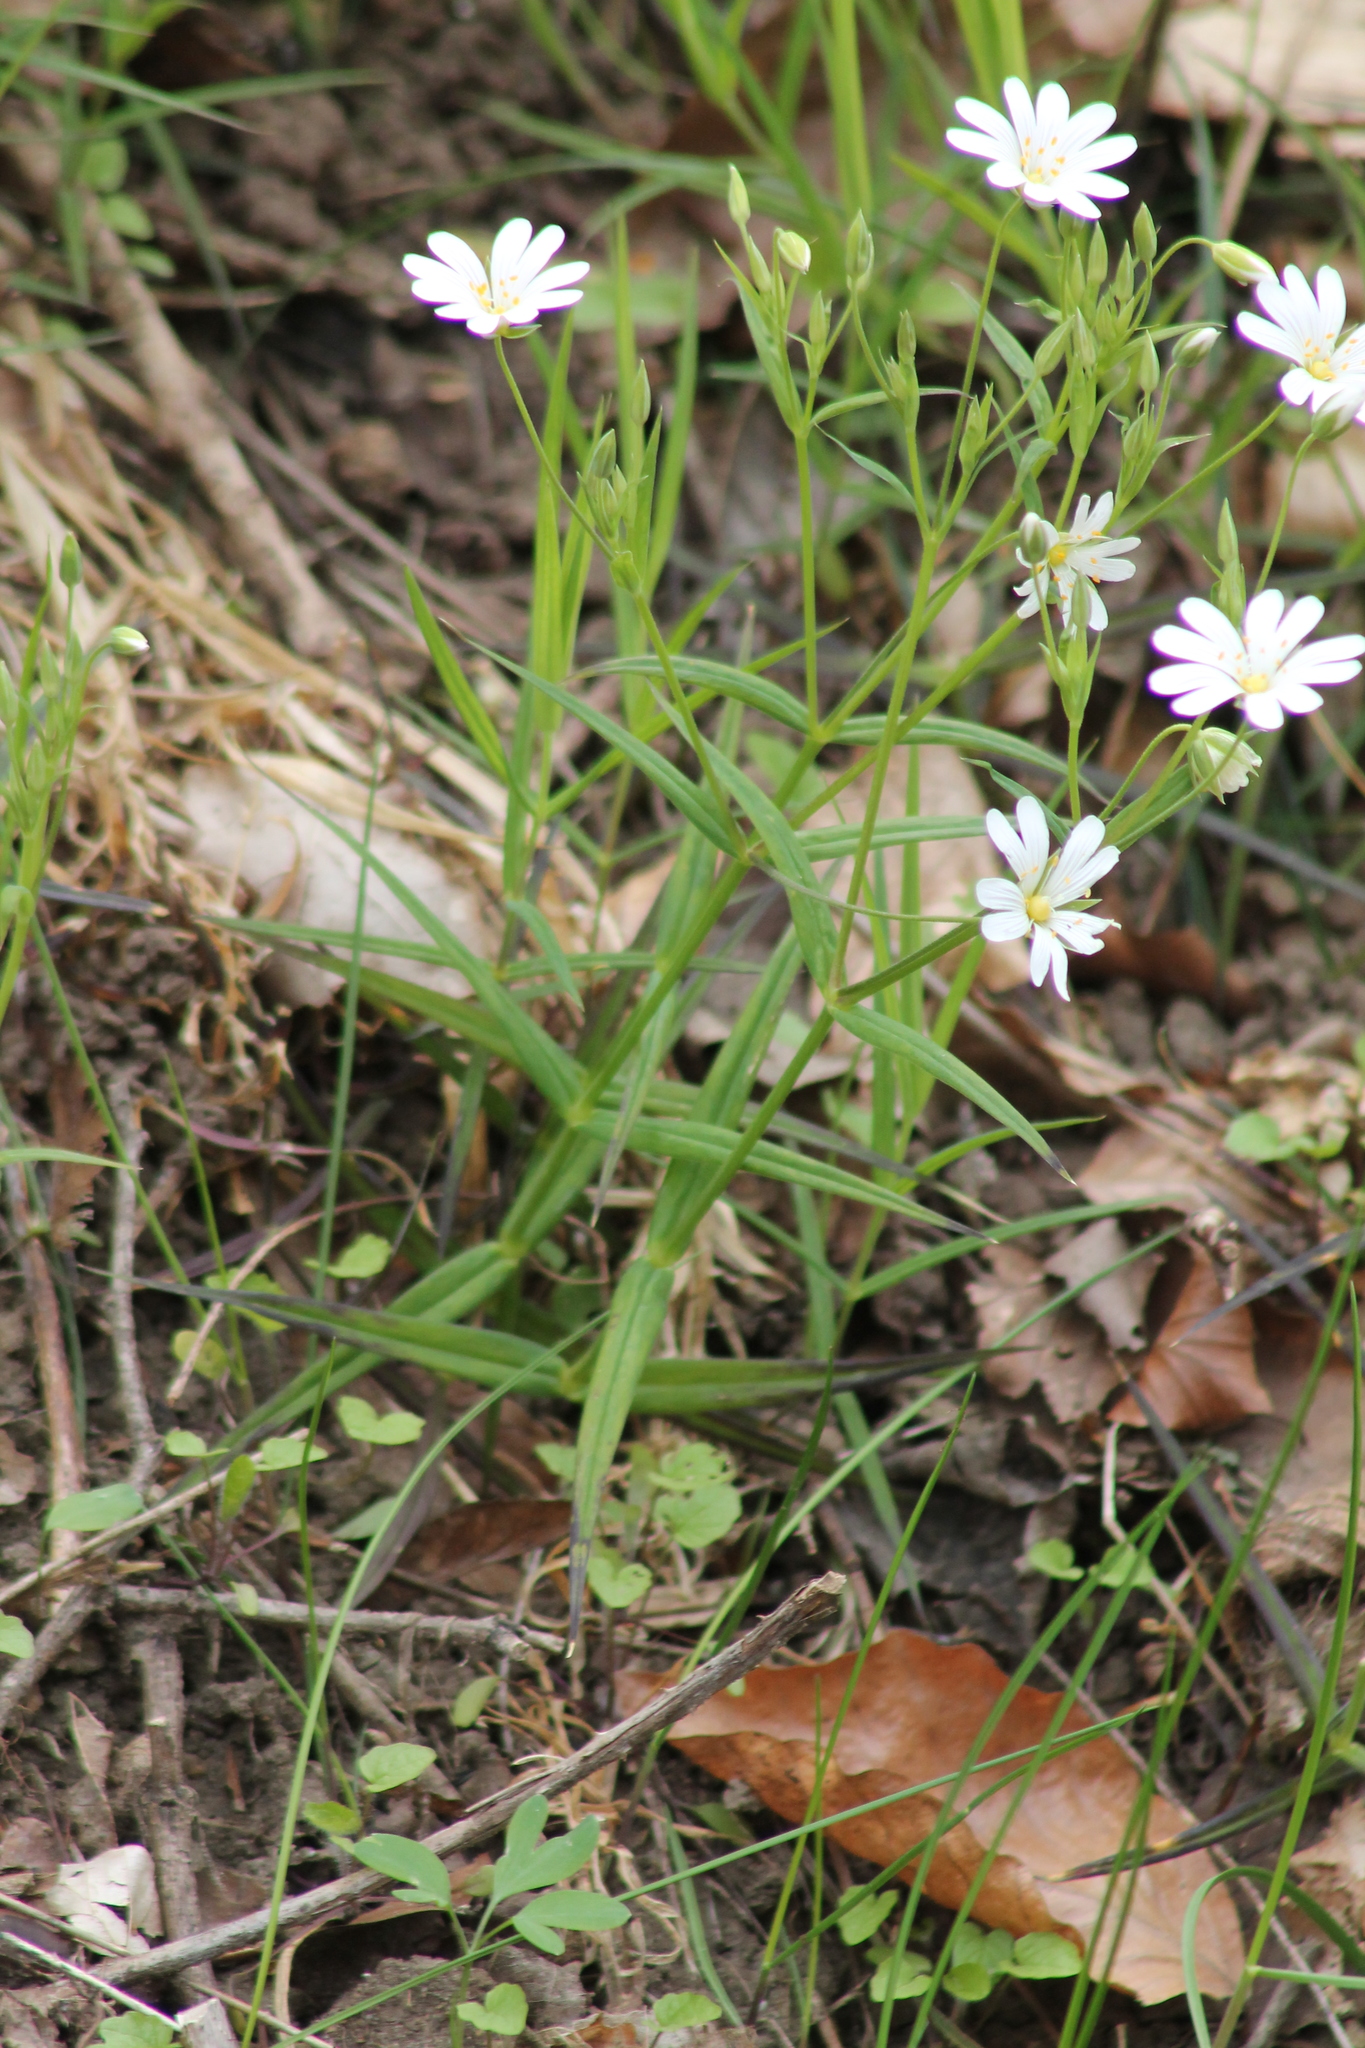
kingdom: Plantae
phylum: Tracheophyta
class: Magnoliopsida
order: Caryophyllales
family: Caryophyllaceae
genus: Rabelera
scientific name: Rabelera holostea
